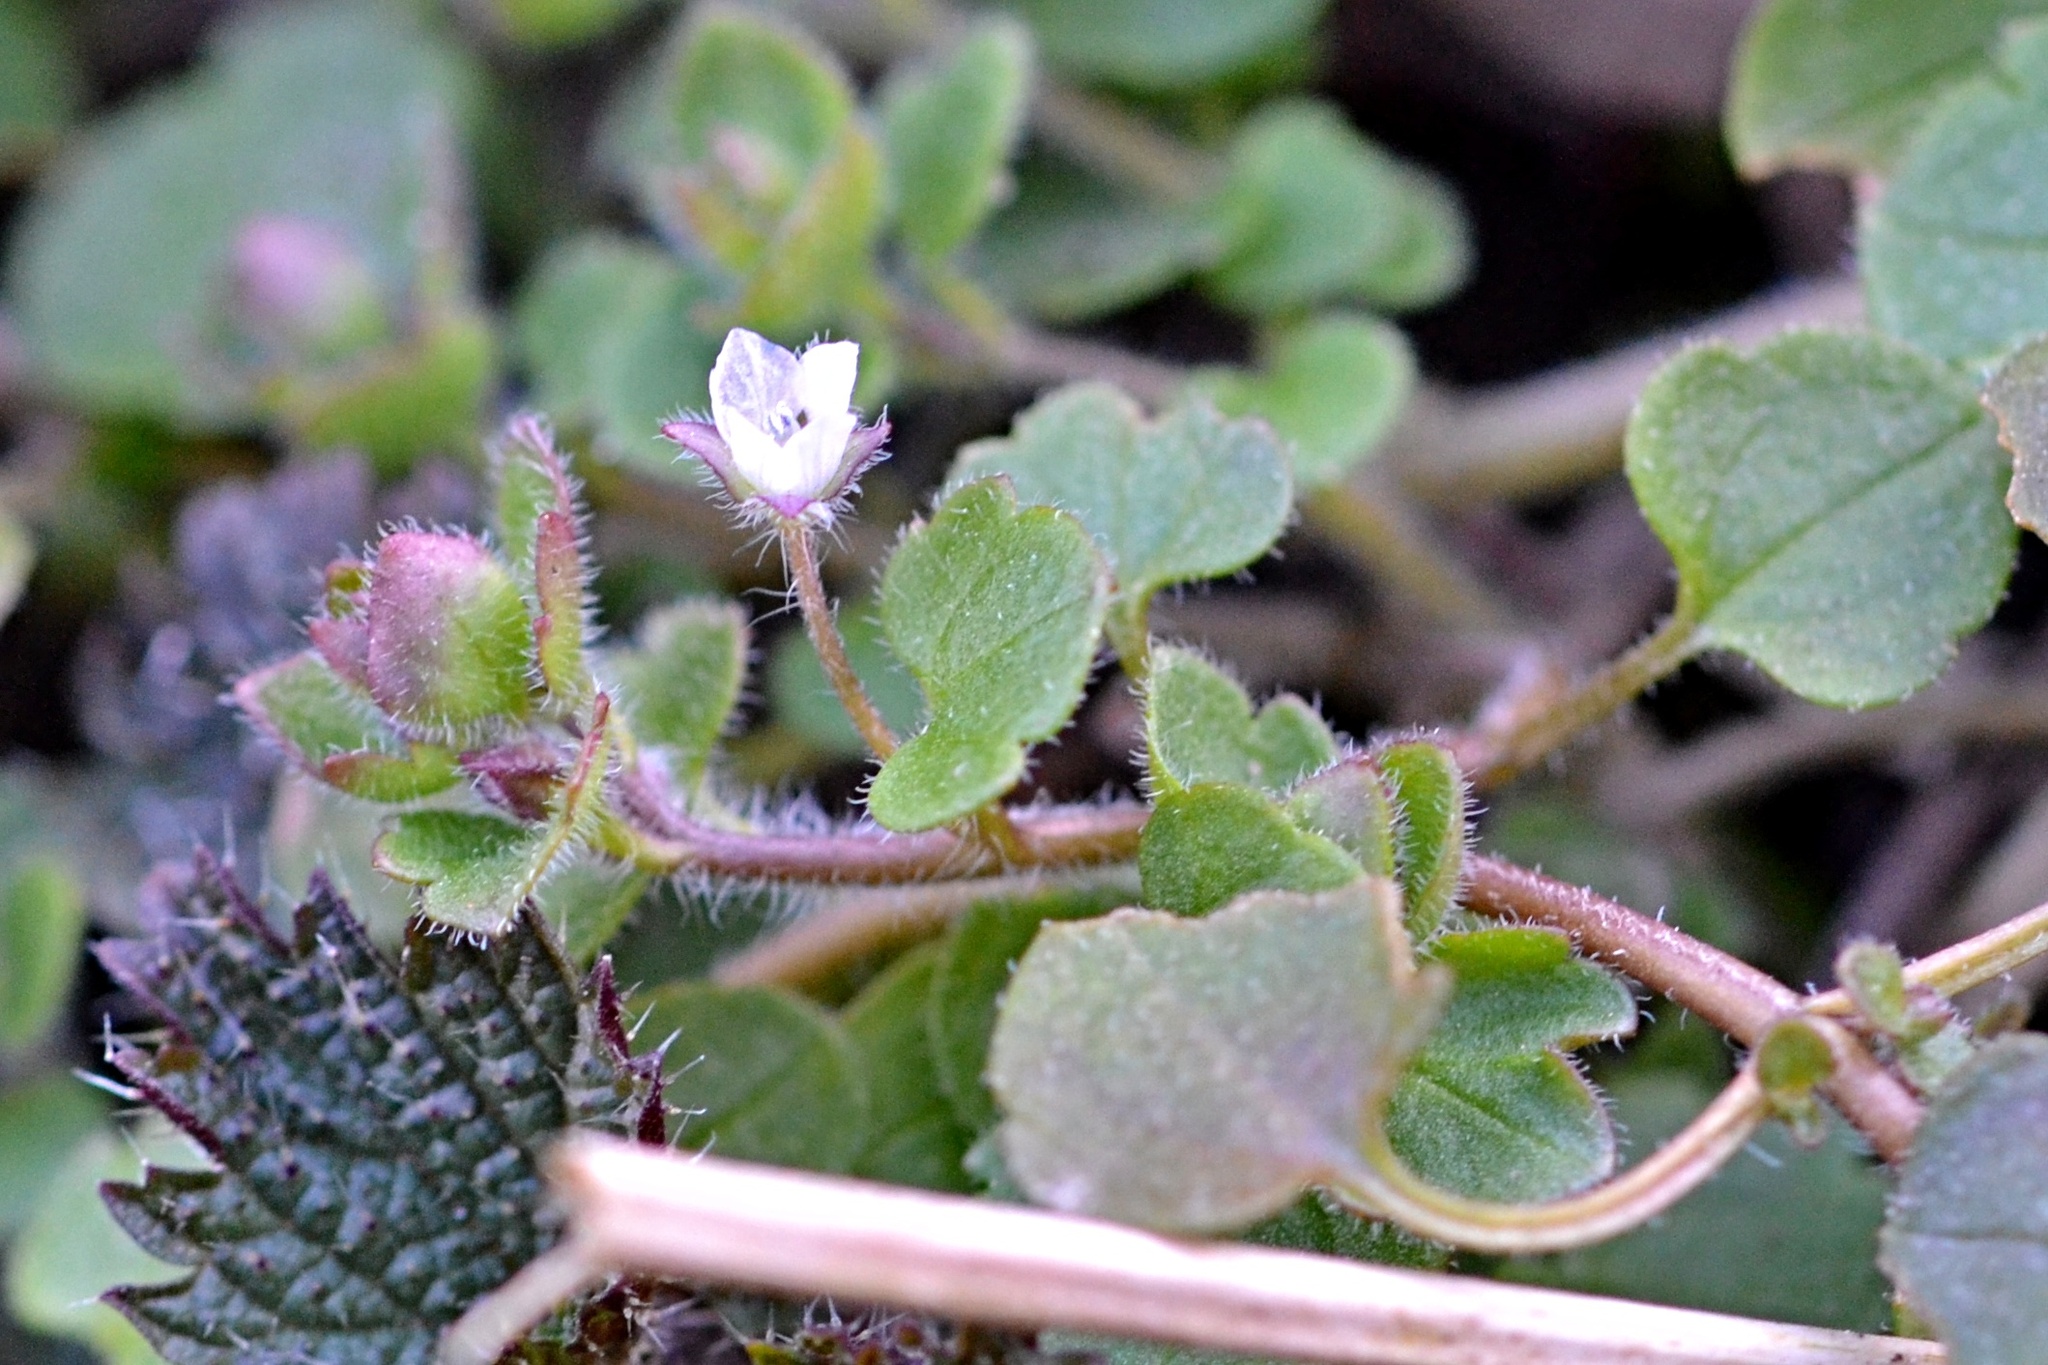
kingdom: Plantae
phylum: Tracheophyta
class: Magnoliopsida
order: Lamiales
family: Plantaginaceae
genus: Veronica
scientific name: Veronica sublobata
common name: False ivy-leaved speedwell
